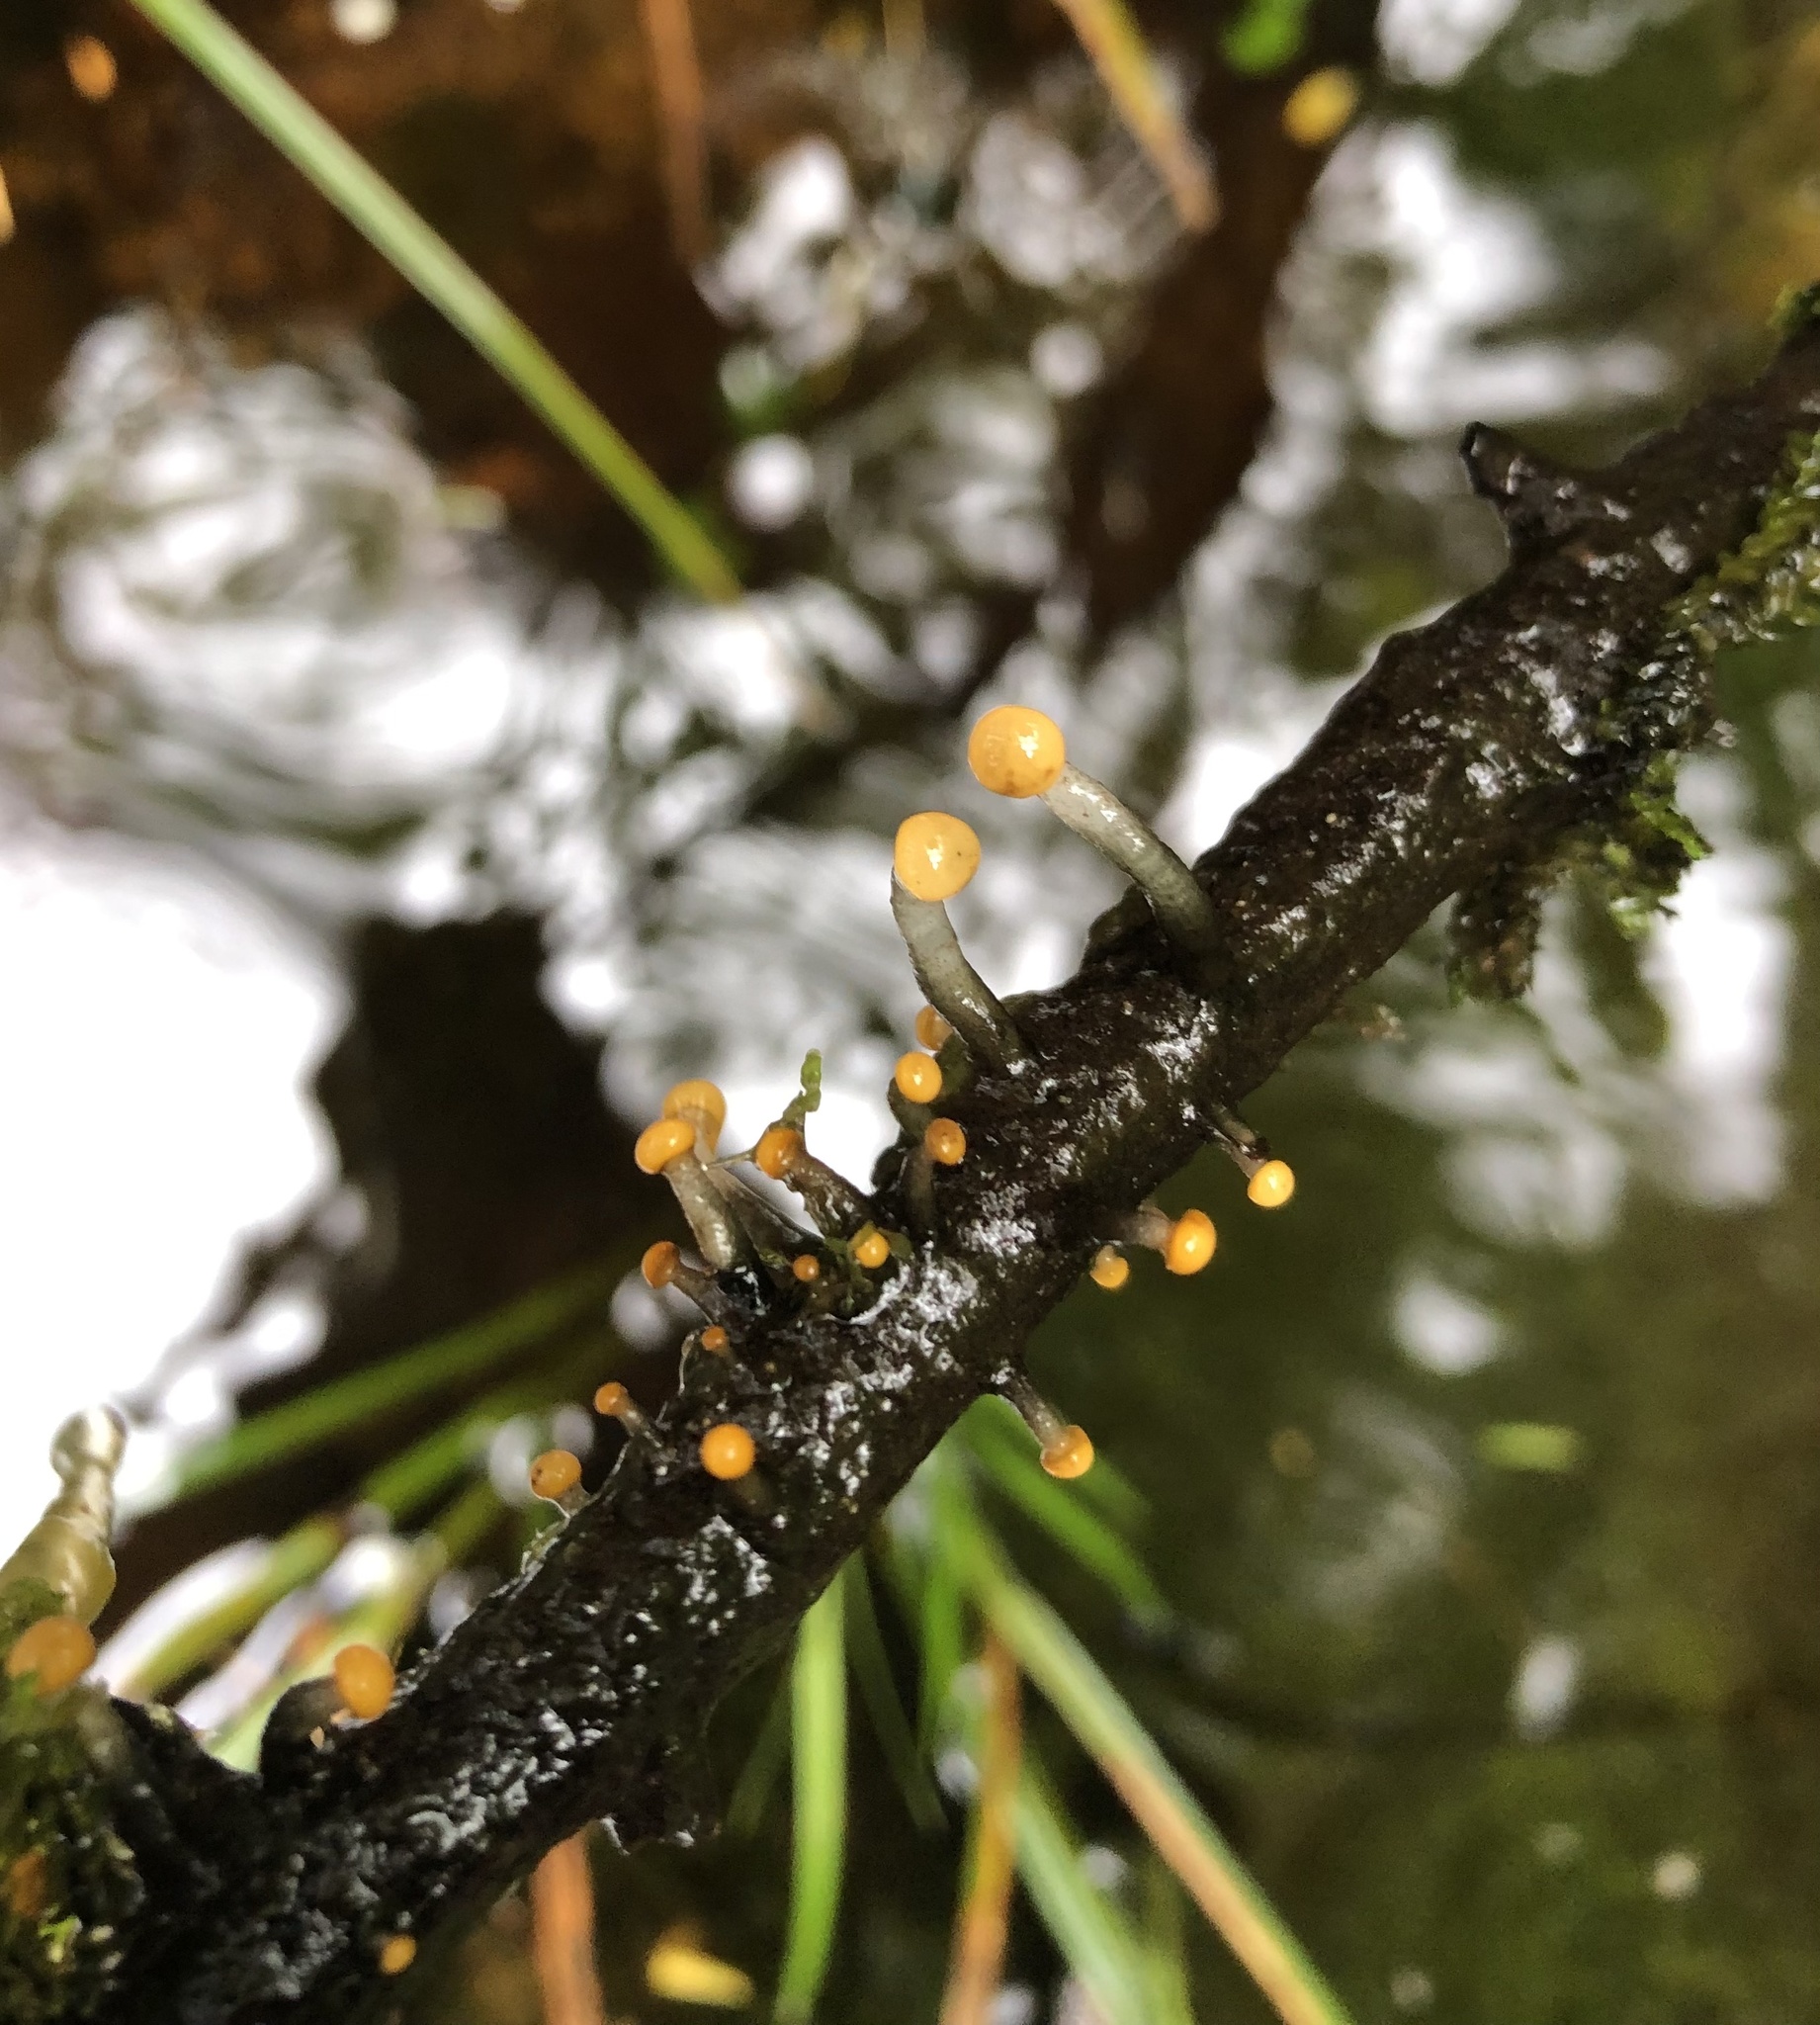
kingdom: Fungi
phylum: Ascomycota
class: Leotiomycetes
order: Helotiales
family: Vibrisseaceae
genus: Vibrissea
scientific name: Vibrissea truncorum
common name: Stream beacon
